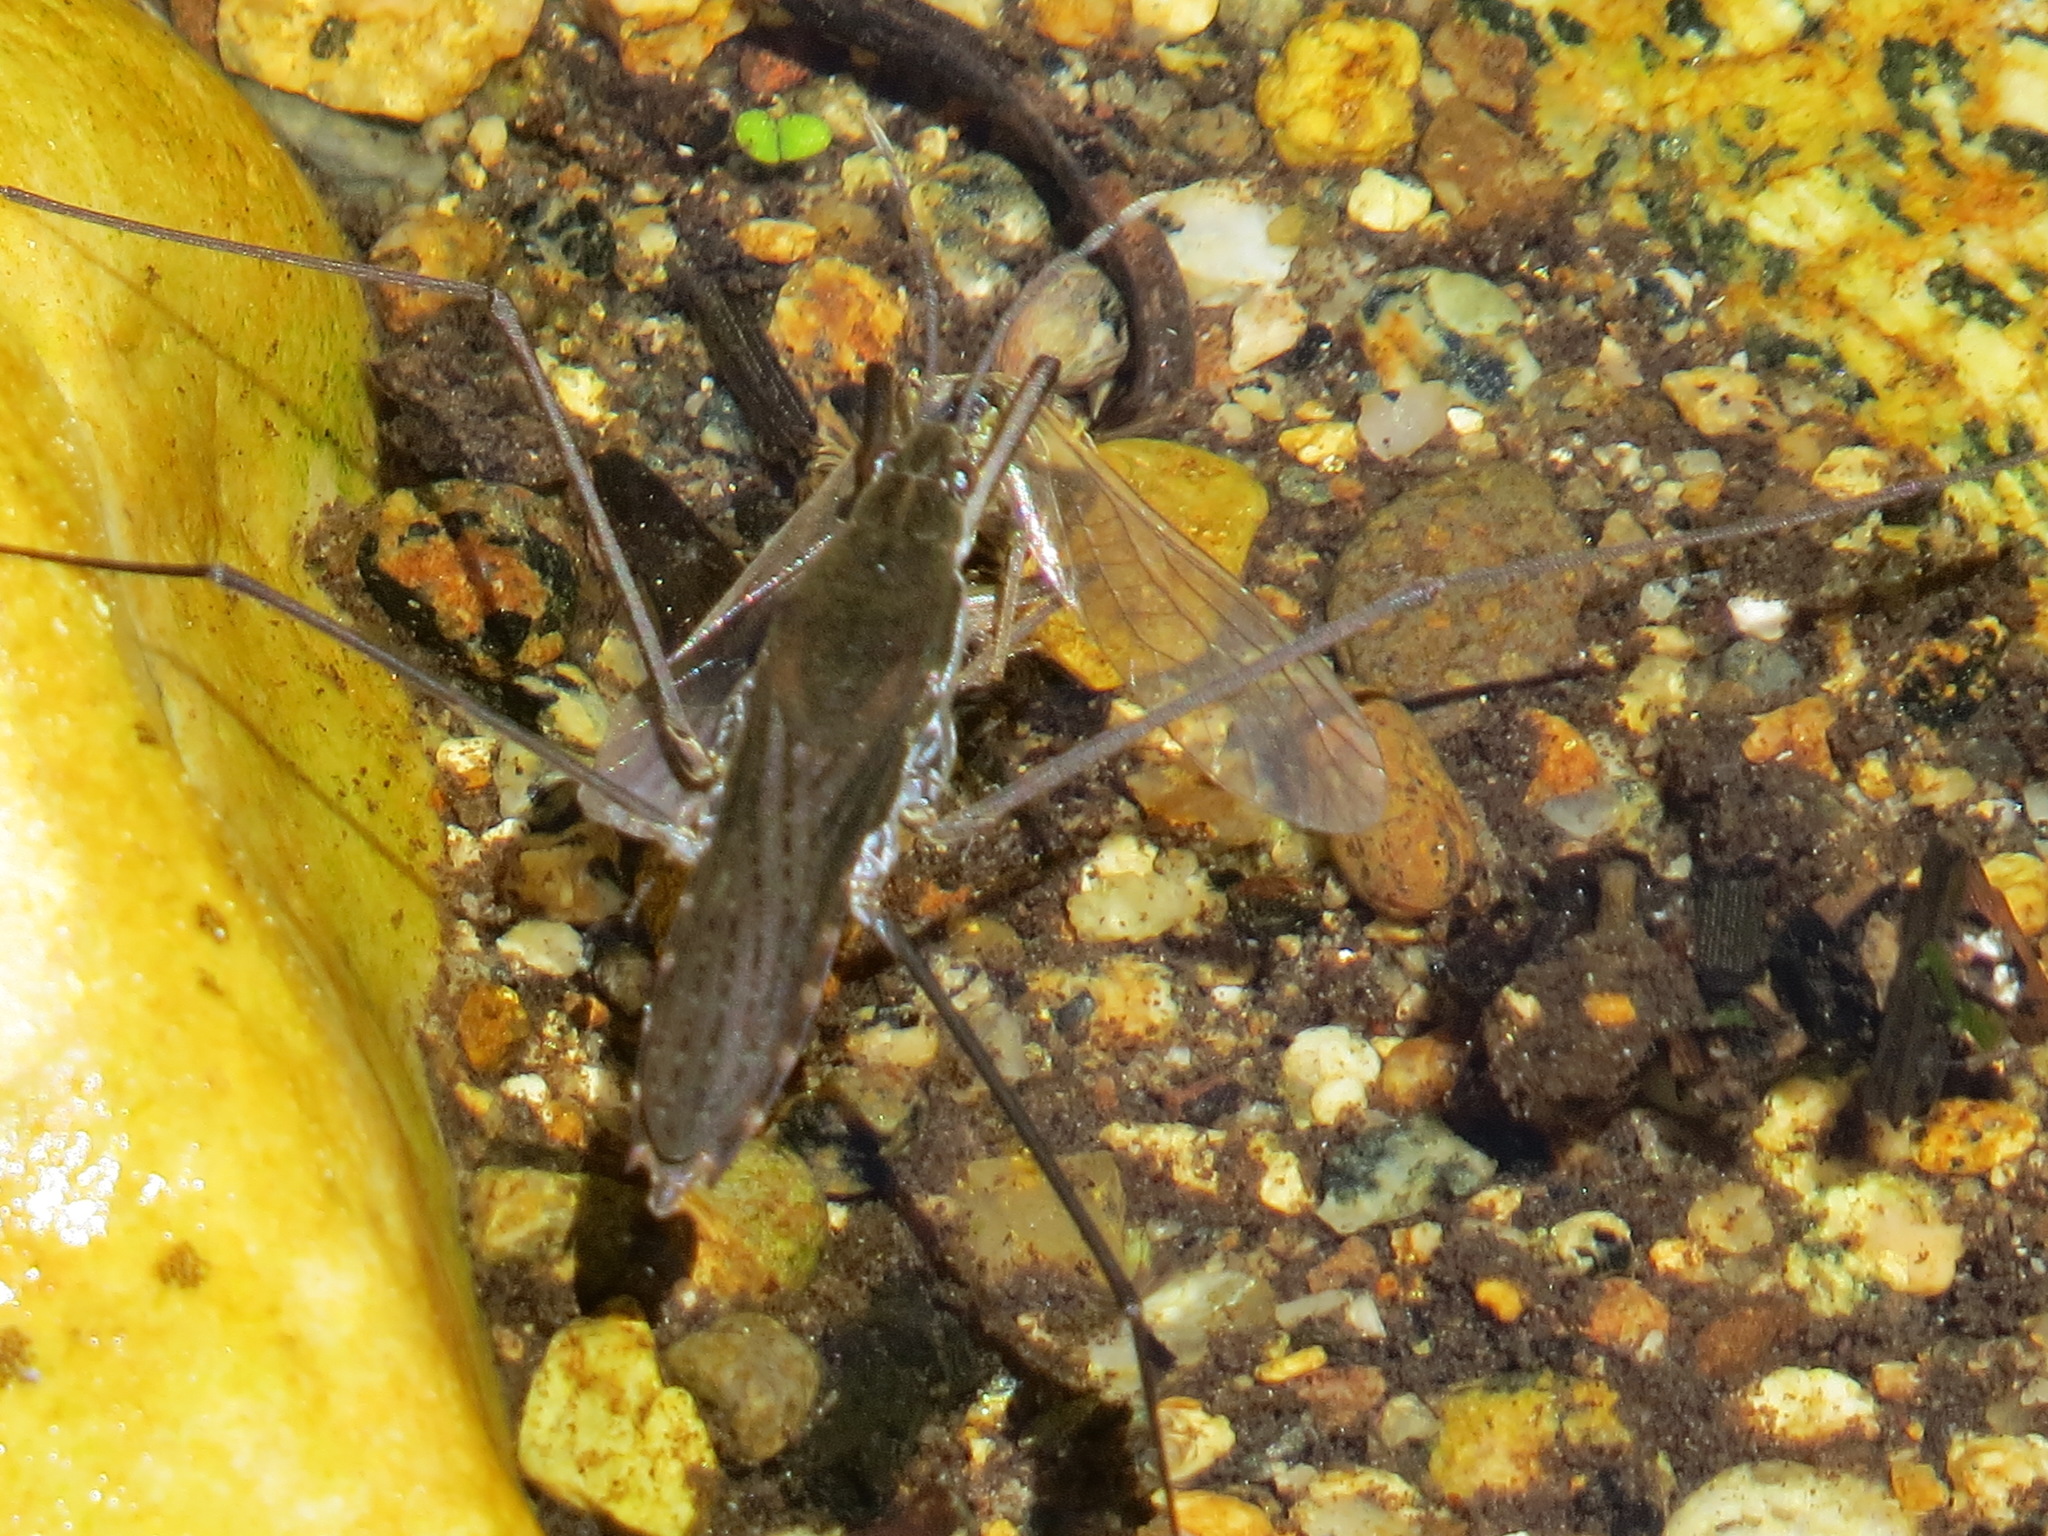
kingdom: Animalia
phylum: Arthropoda
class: Insecta
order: Hemiptera
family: Gerridae
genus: Aquarius
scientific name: Aquarius remigis
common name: Common water strider
